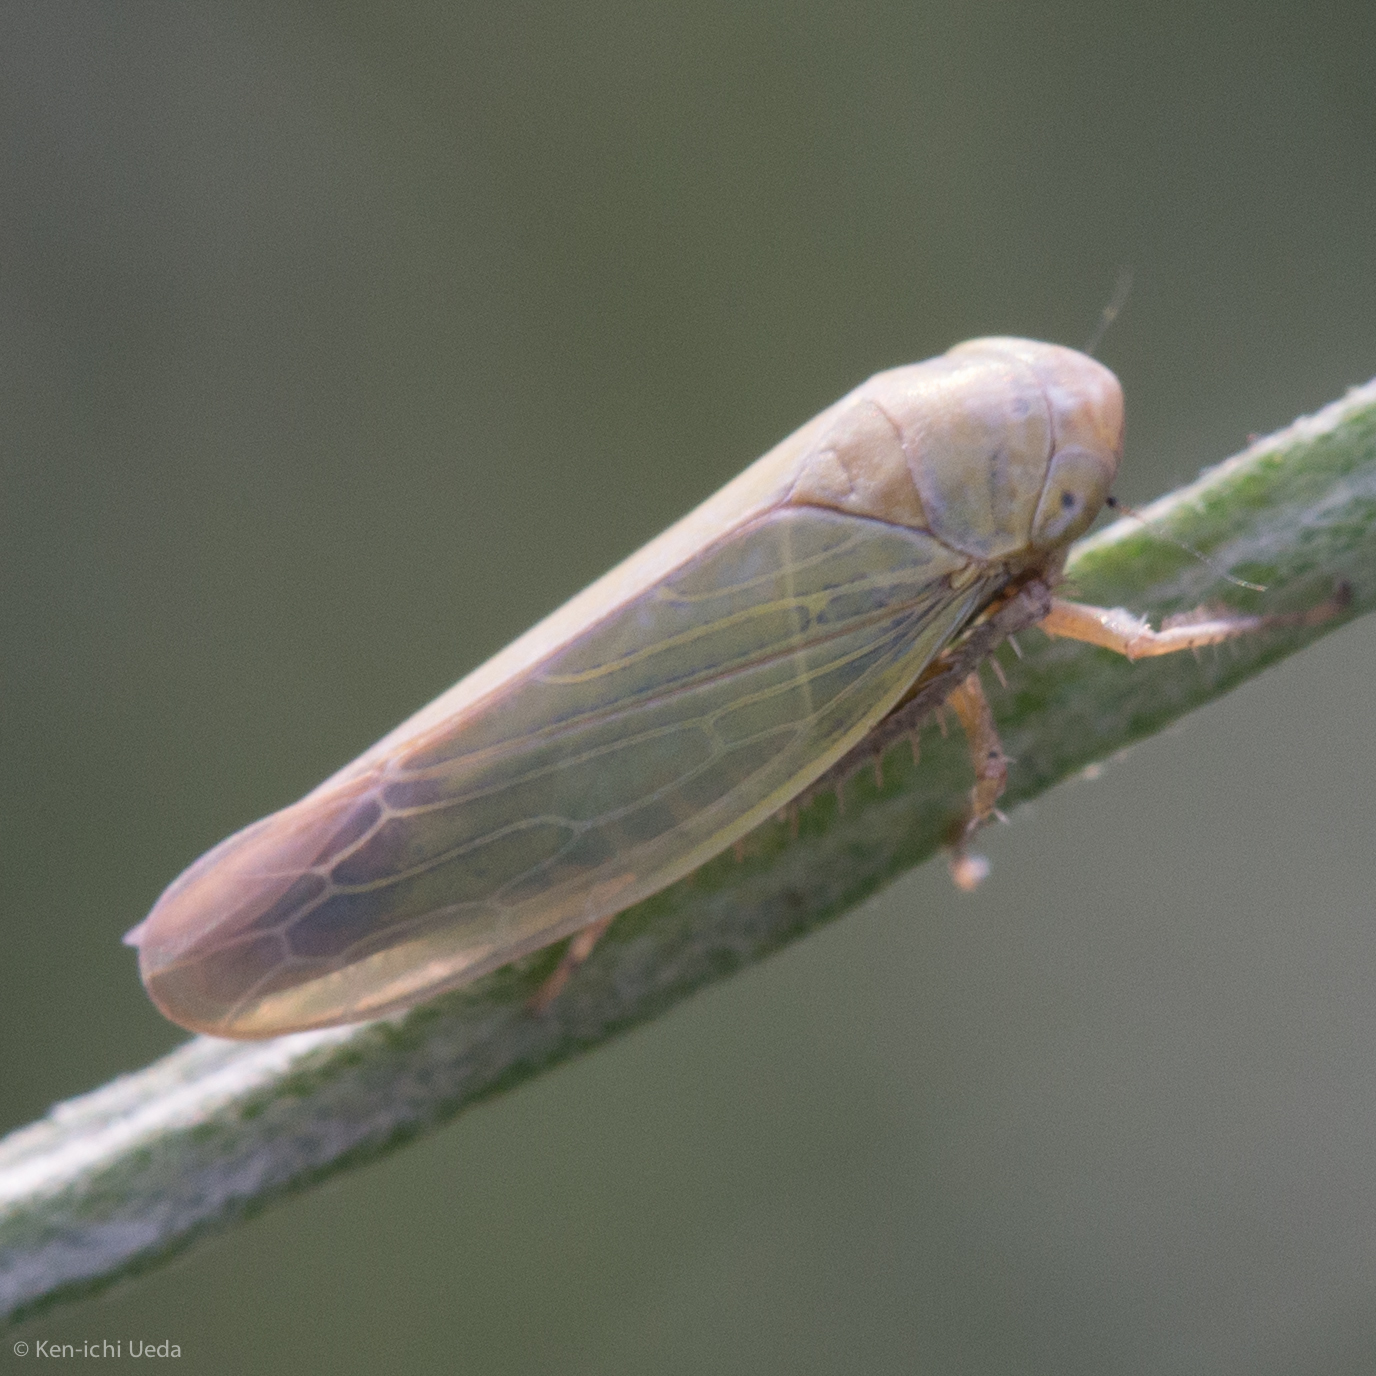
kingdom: Animalia
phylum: Arthropoda
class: Insecta
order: Hemiptera
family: Cicadellidae
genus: Thamnotettix
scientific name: Thamnotettix zelleri
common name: Leafhopper
